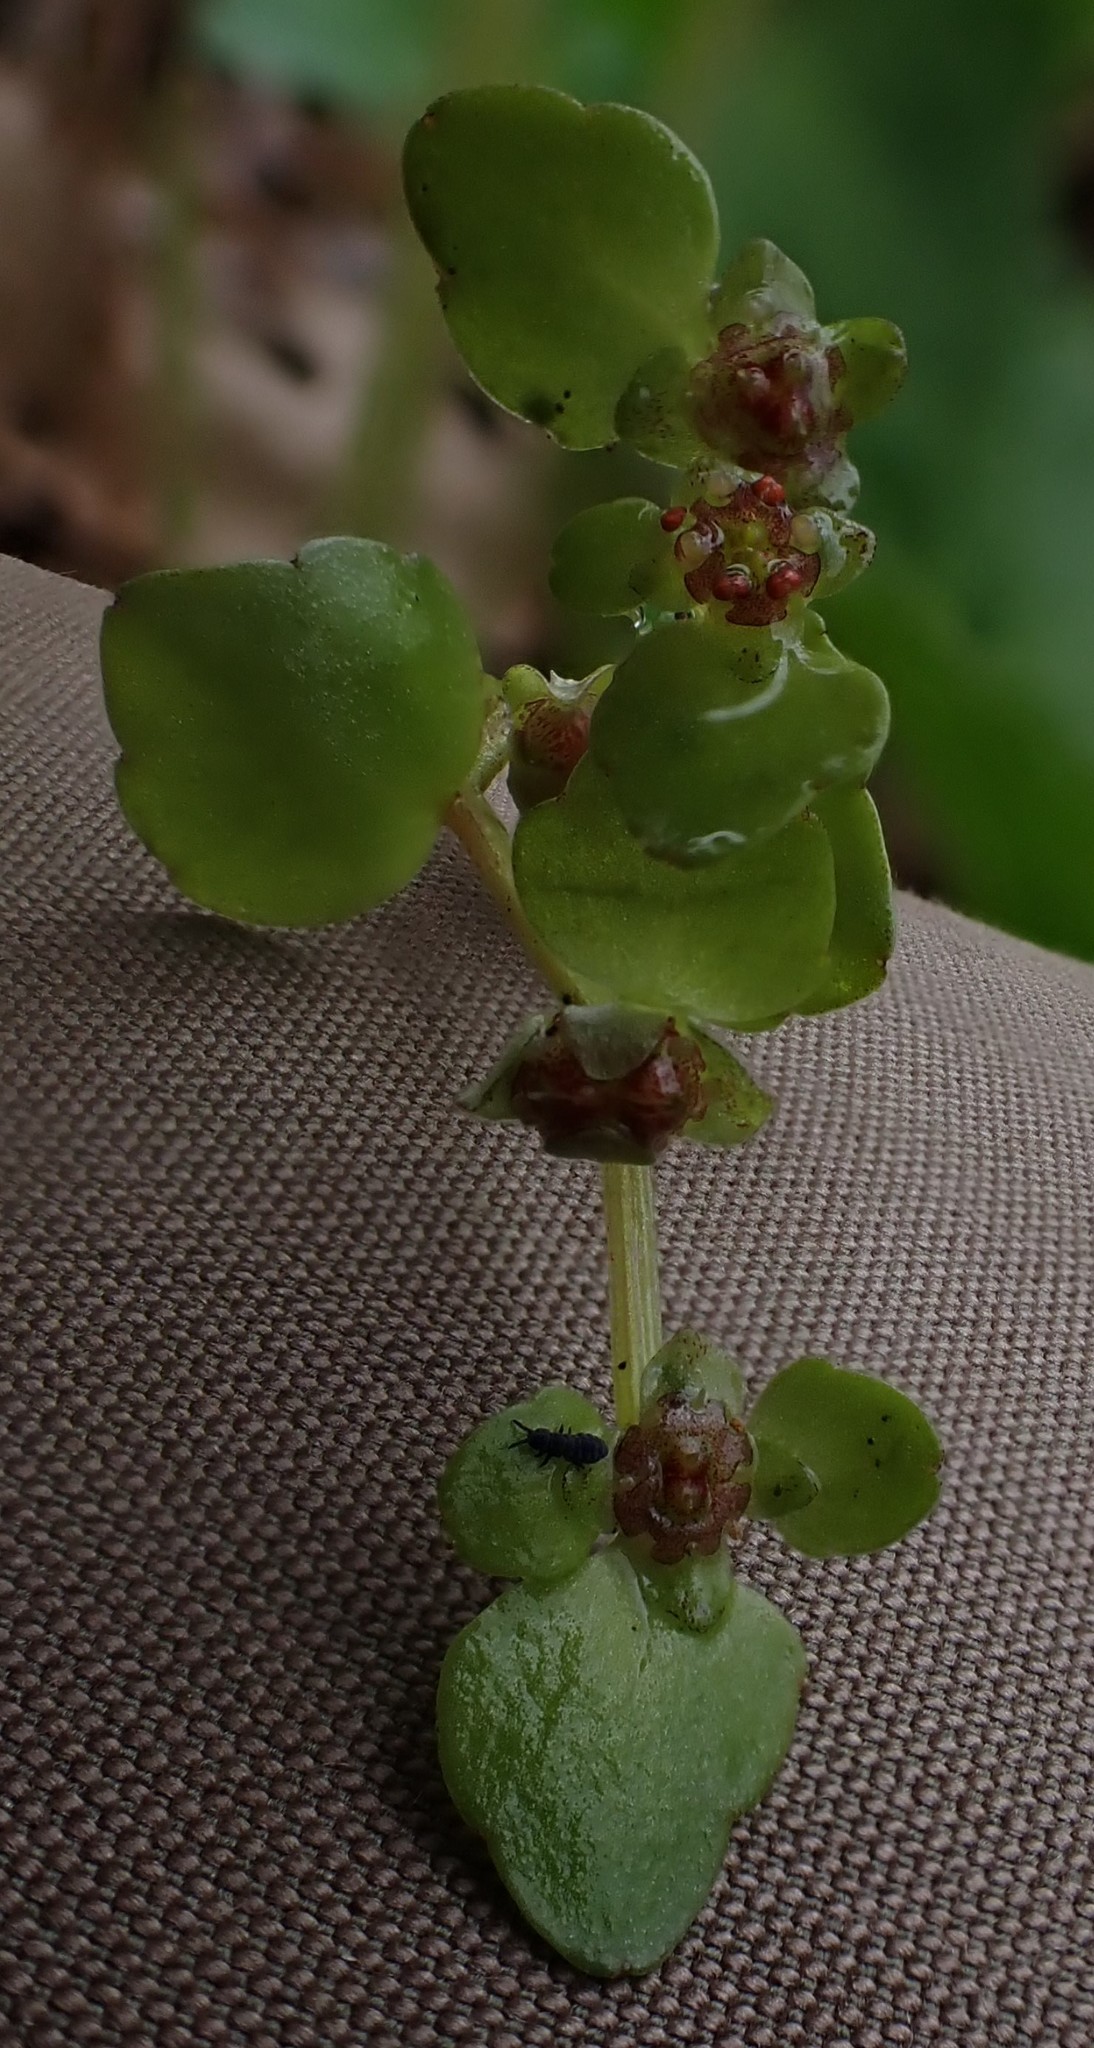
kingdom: Plantae
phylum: Tracheophyta
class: Magnoliopsida
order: Saxifragales
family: Saxifragaceae
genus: Chrysosplenium
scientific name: Chrysosplenium americanum
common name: American golden-saxifrage
